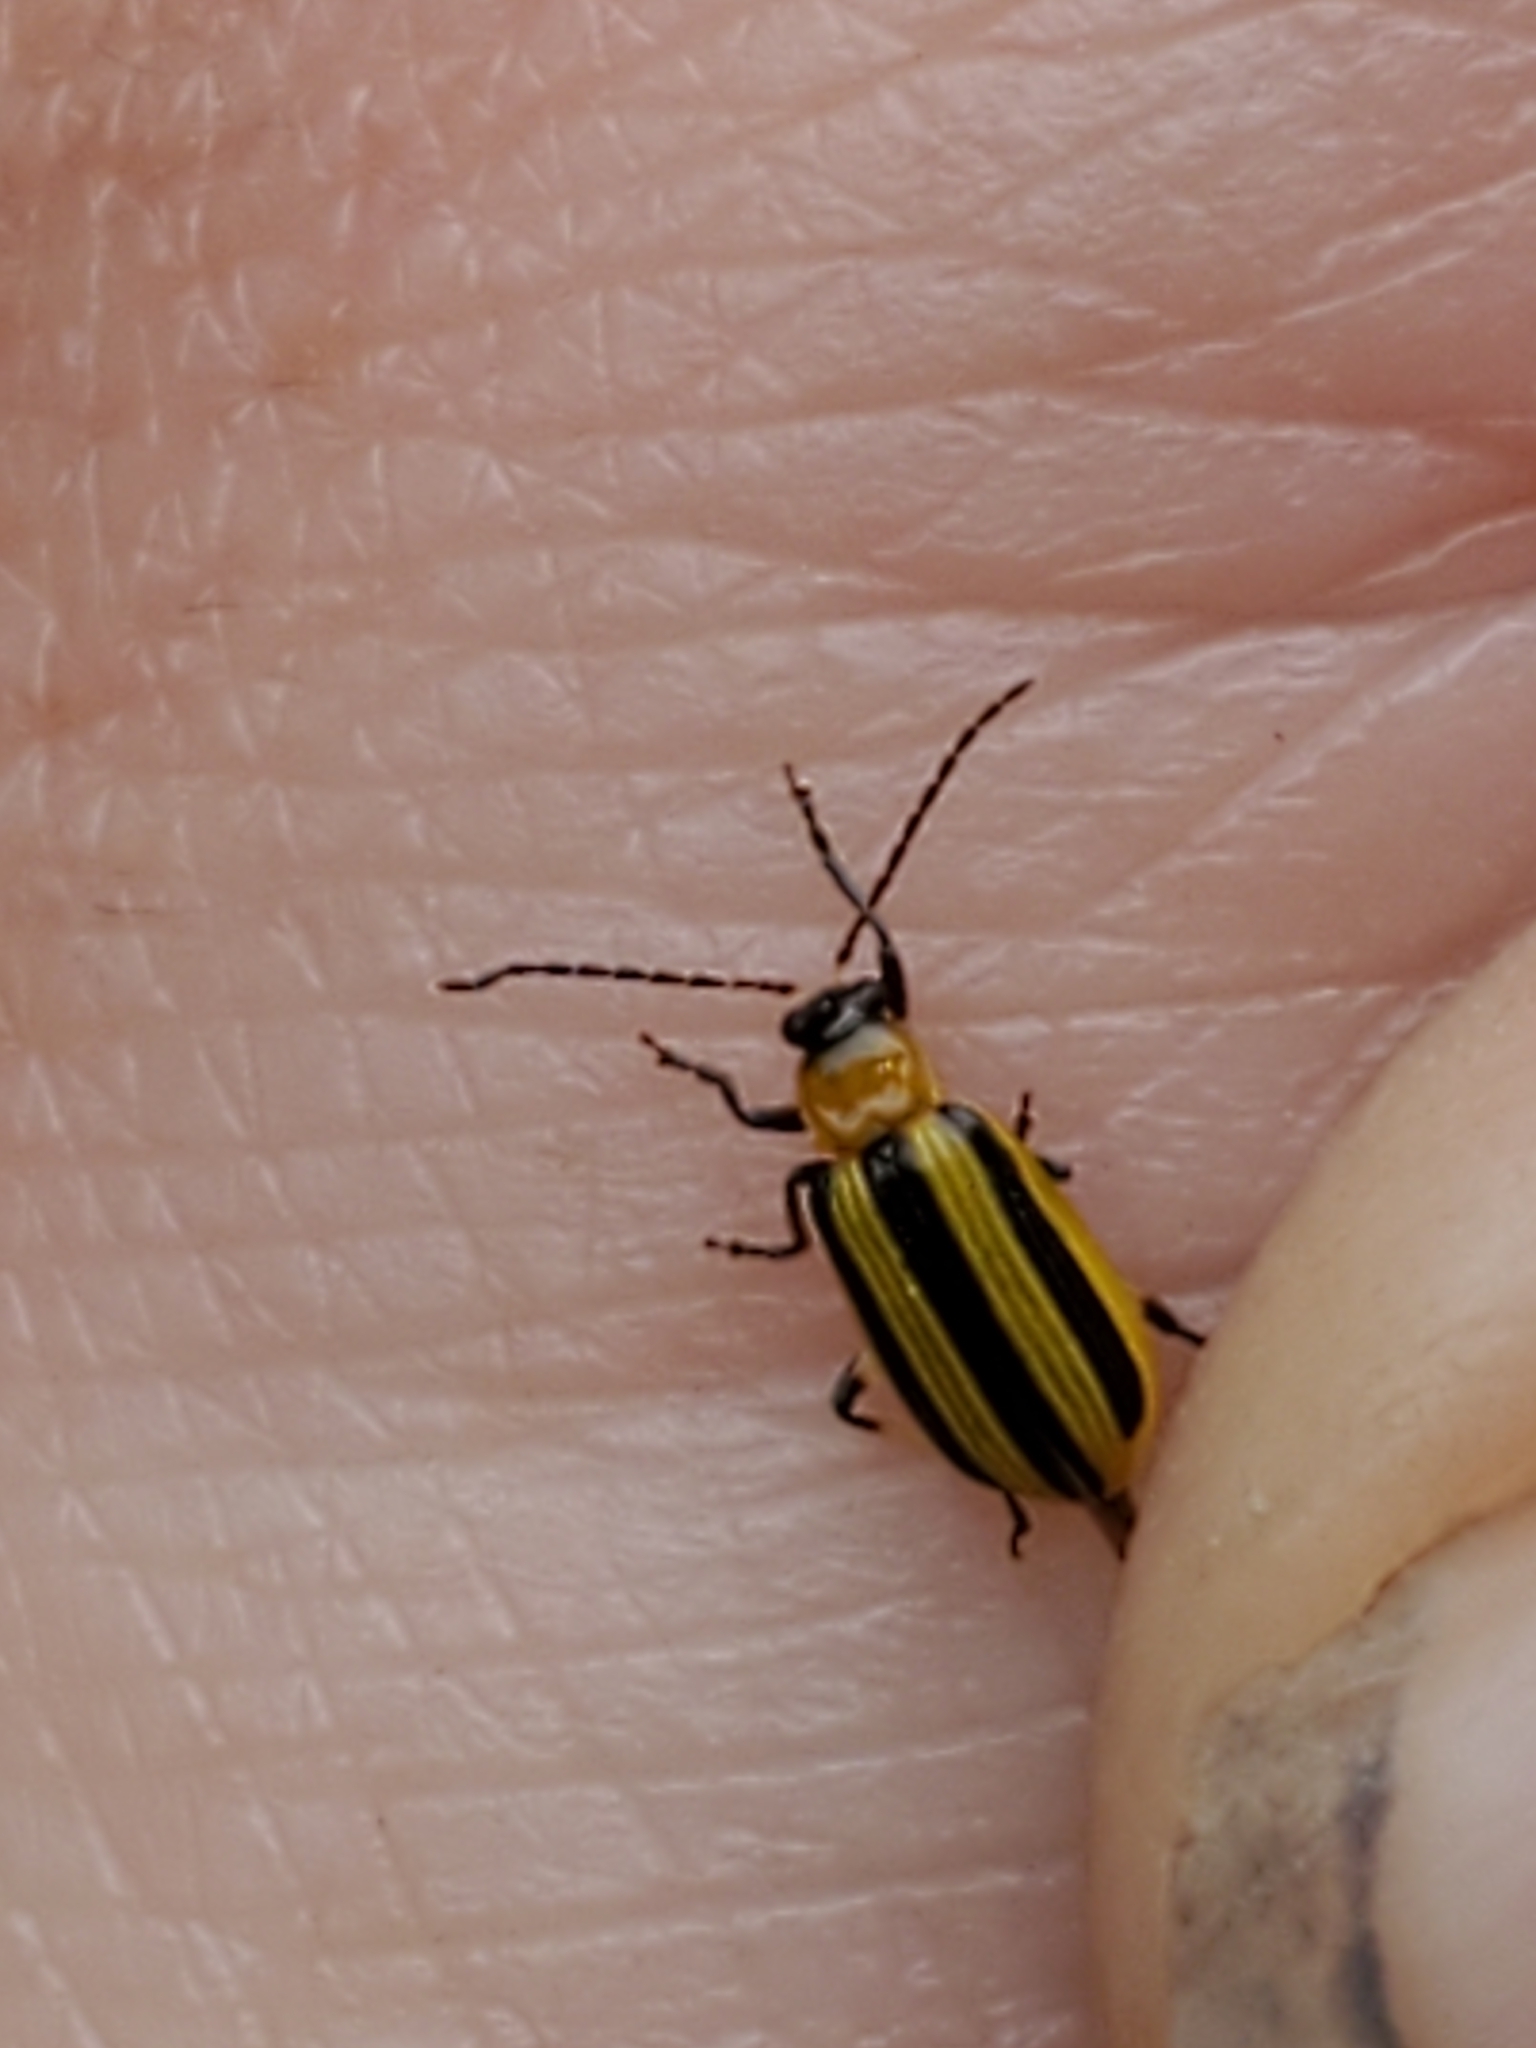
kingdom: Animalia
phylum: Arthropoda
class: Insecta
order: Coleoptera
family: Chrysomelidae
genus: Acalymma
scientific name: Acalymma vittatum
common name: Striped cucumber beetle
